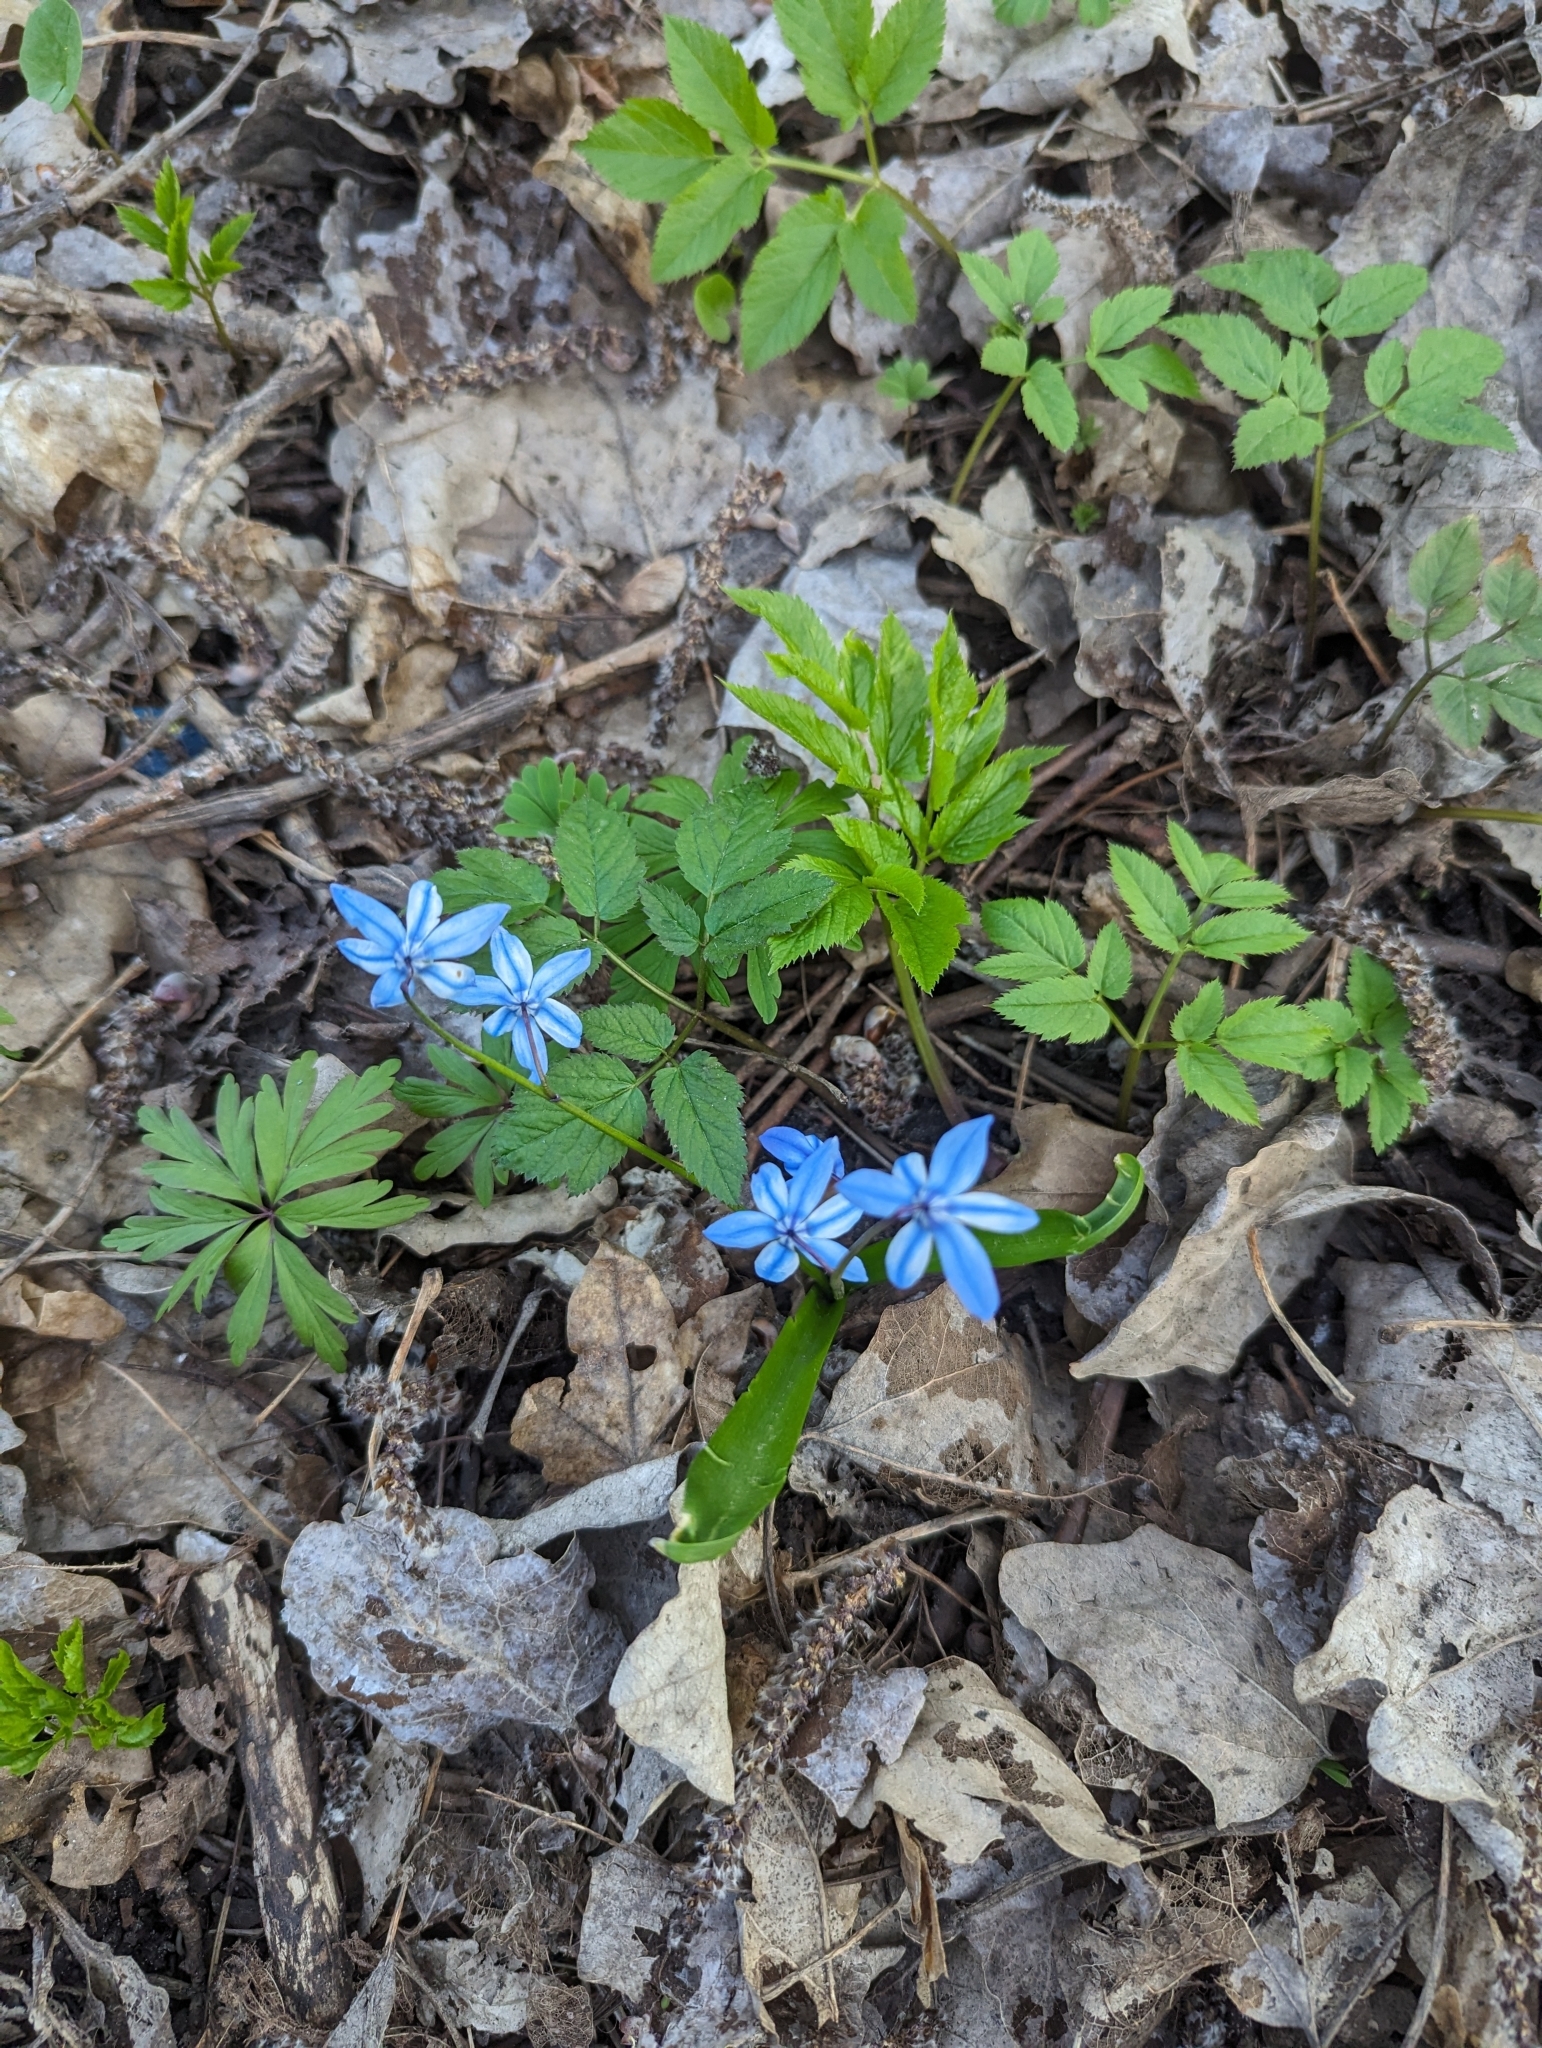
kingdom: Plantae
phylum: Tracheophyta
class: Liliopsida
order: Asparagales
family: Asparagaceae
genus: Scilla
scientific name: Scilla siberica
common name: Siberian squill
